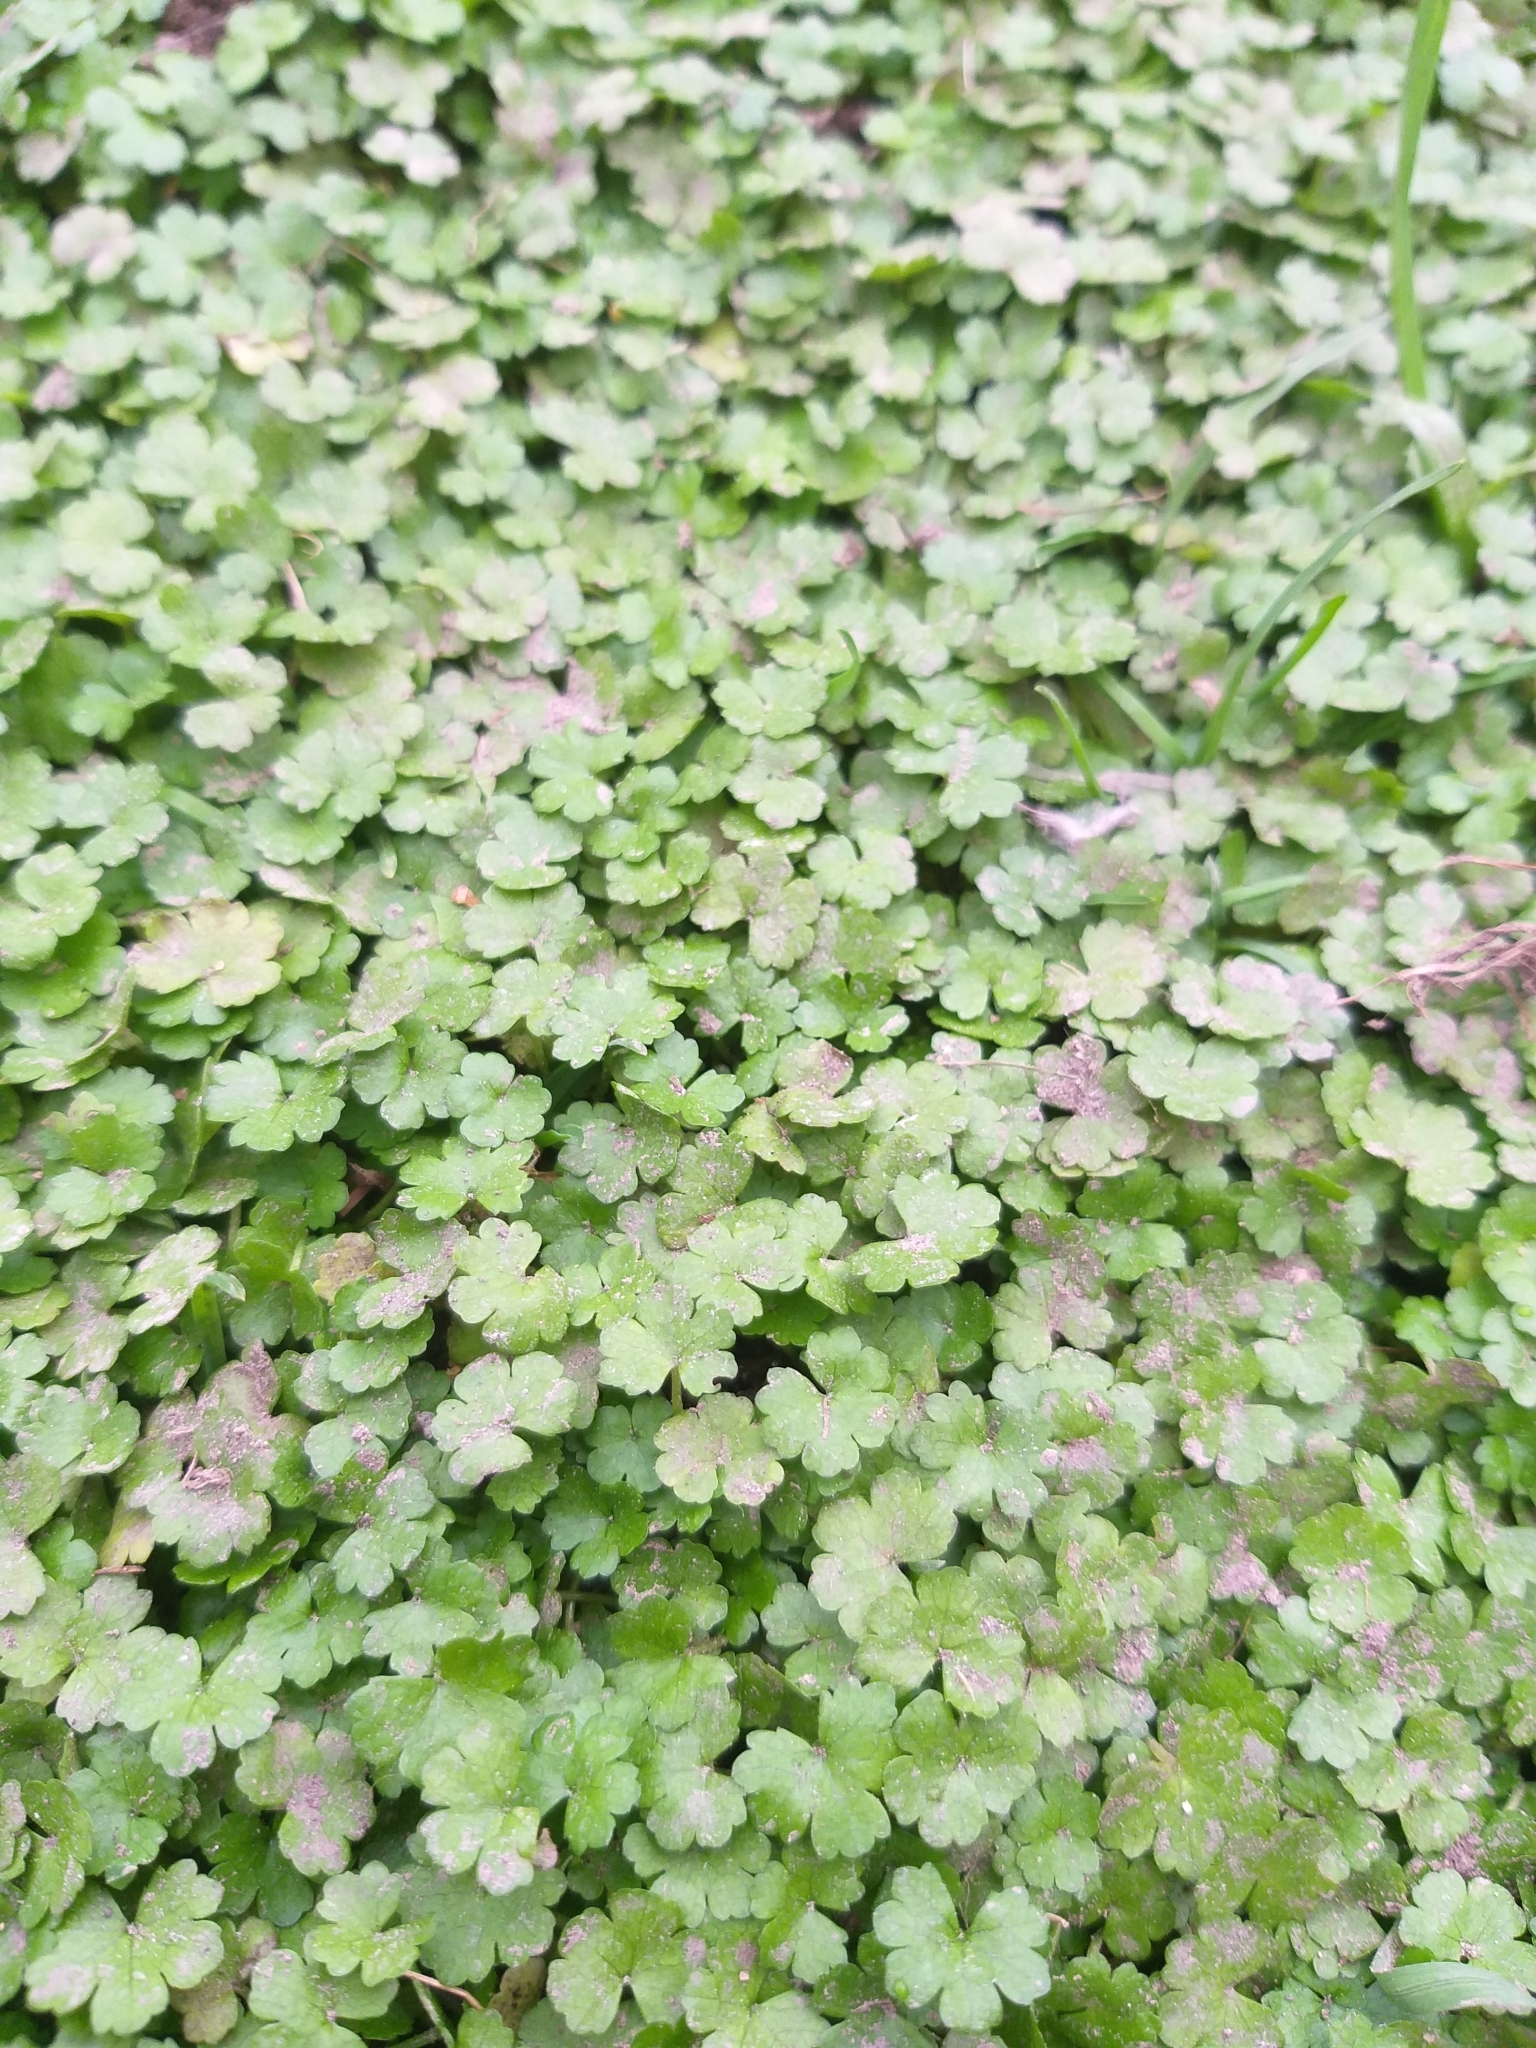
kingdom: Plantae
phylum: Tracheophyta
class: Magnoliopsida
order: Apiales
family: Araliaceae
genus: Hydrocotyle
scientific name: Hydrocotyle heteromeria
